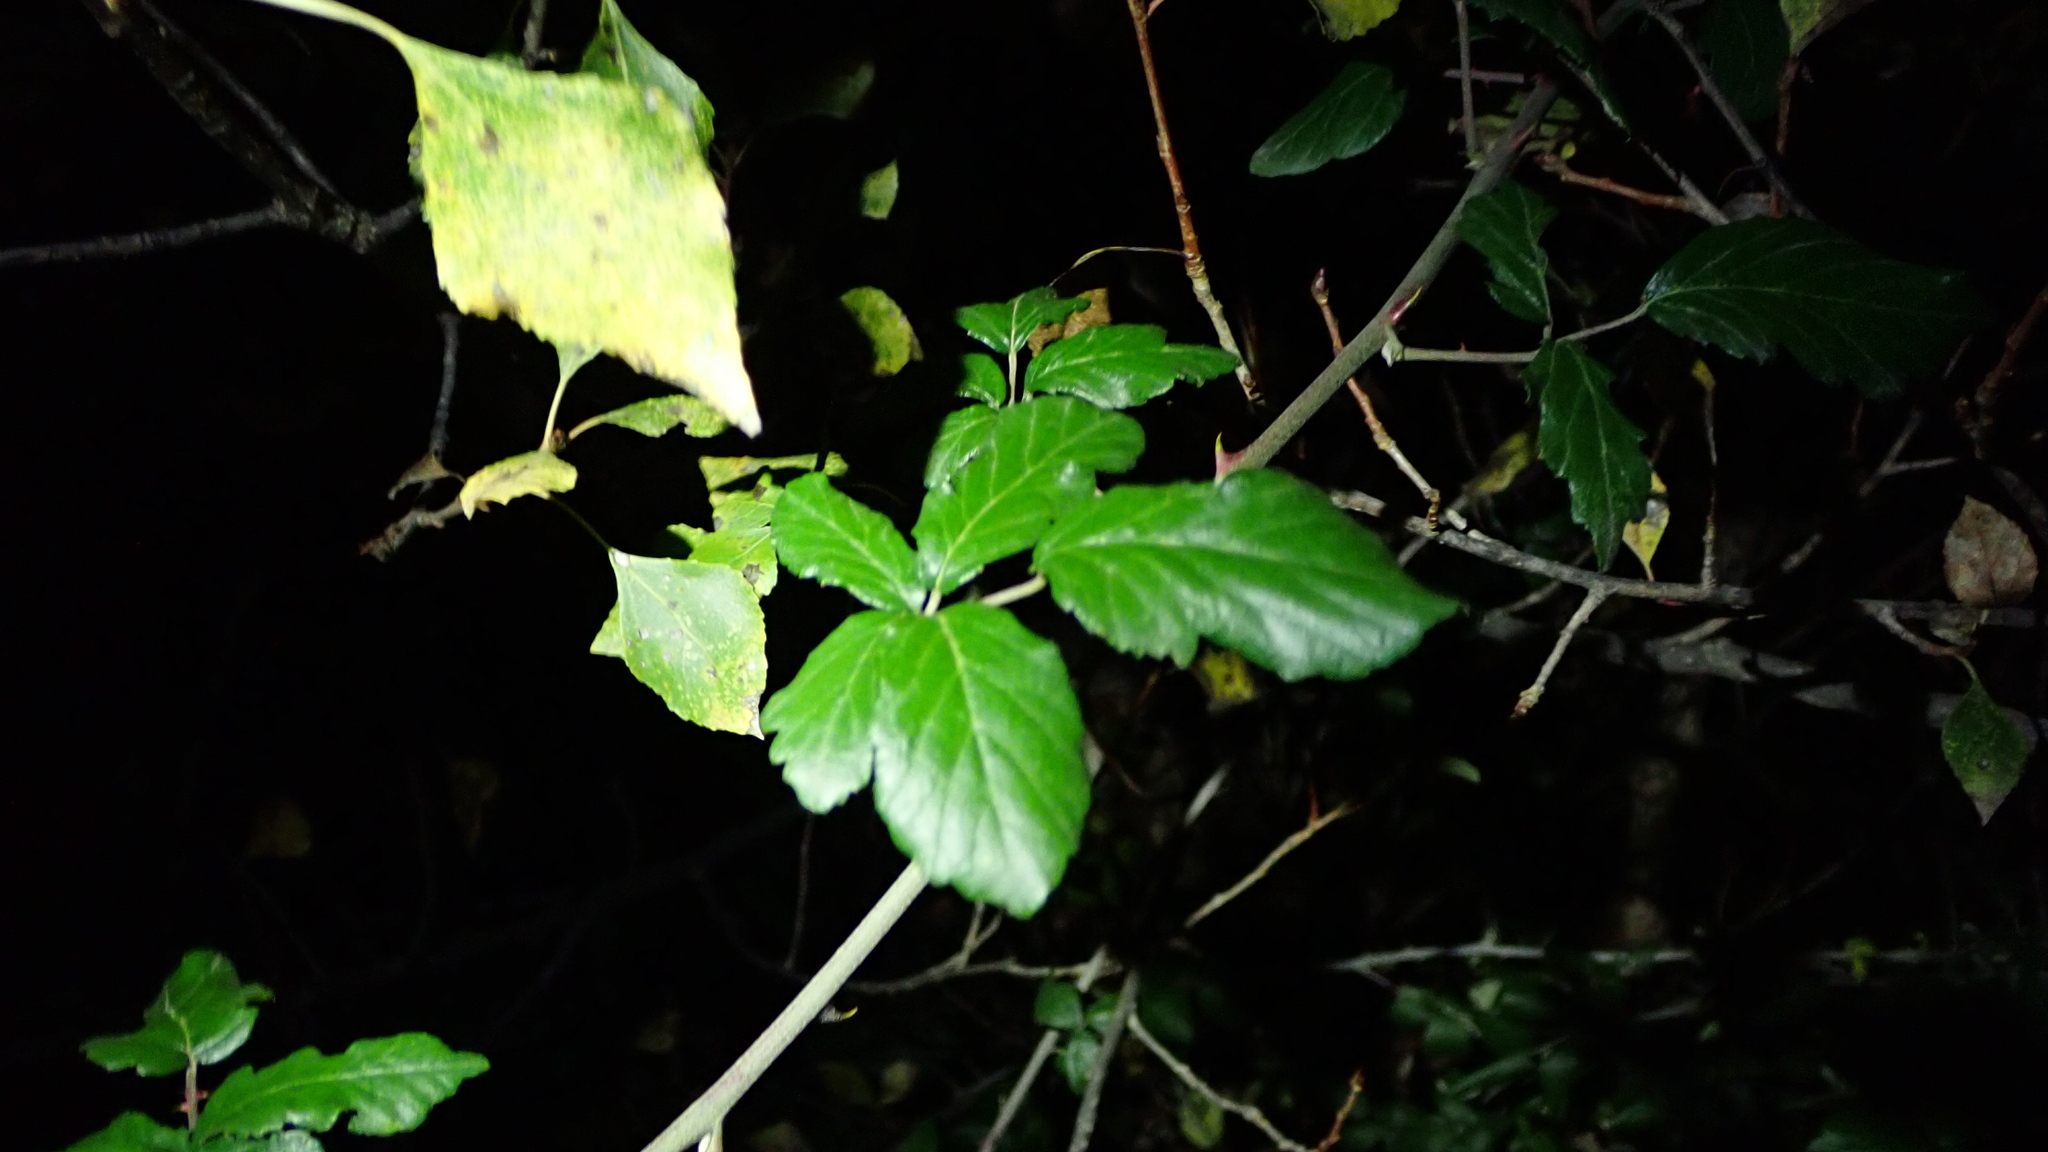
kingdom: Plantae
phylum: Tracheophyta
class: Magnoliopsida
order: Rosales
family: Rosaceae
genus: Rubus
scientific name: Rubus ulmifolius
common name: Elmleaf blackberry
